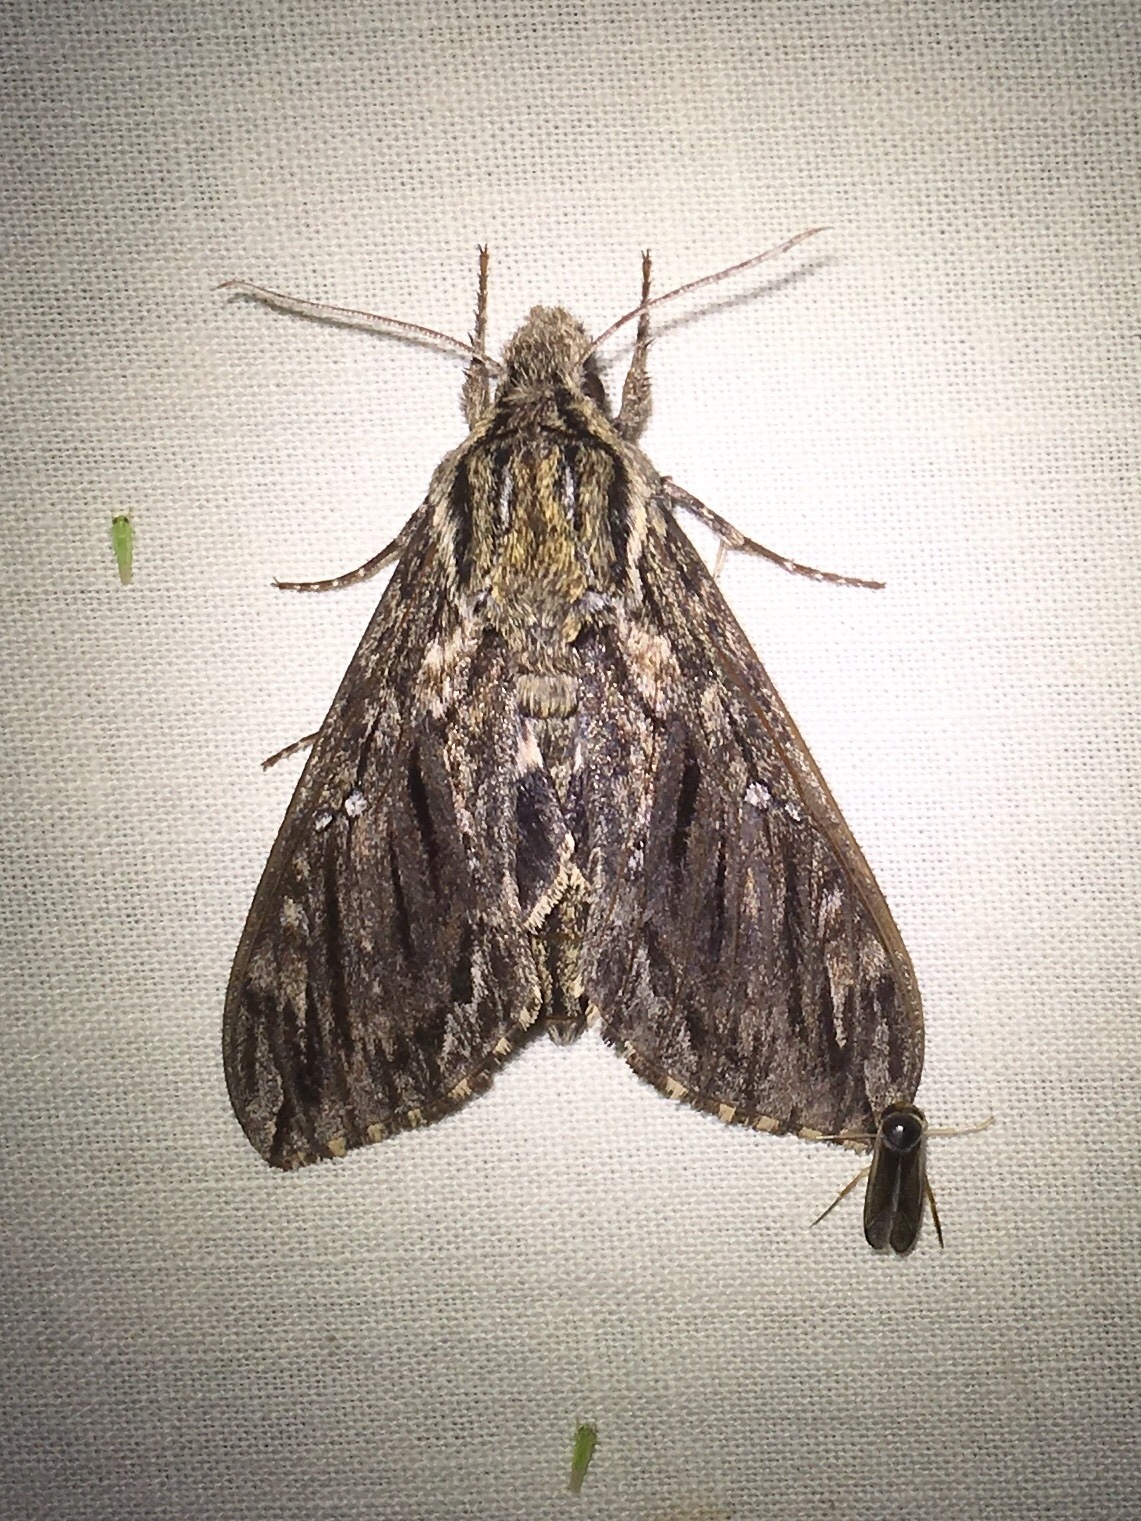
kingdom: Animalia
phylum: Arthropoda
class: Insecta
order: Lepidoptera
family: Sphingidae
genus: Lintneria
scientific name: Lintneria eremitus
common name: Hermit sphinx
